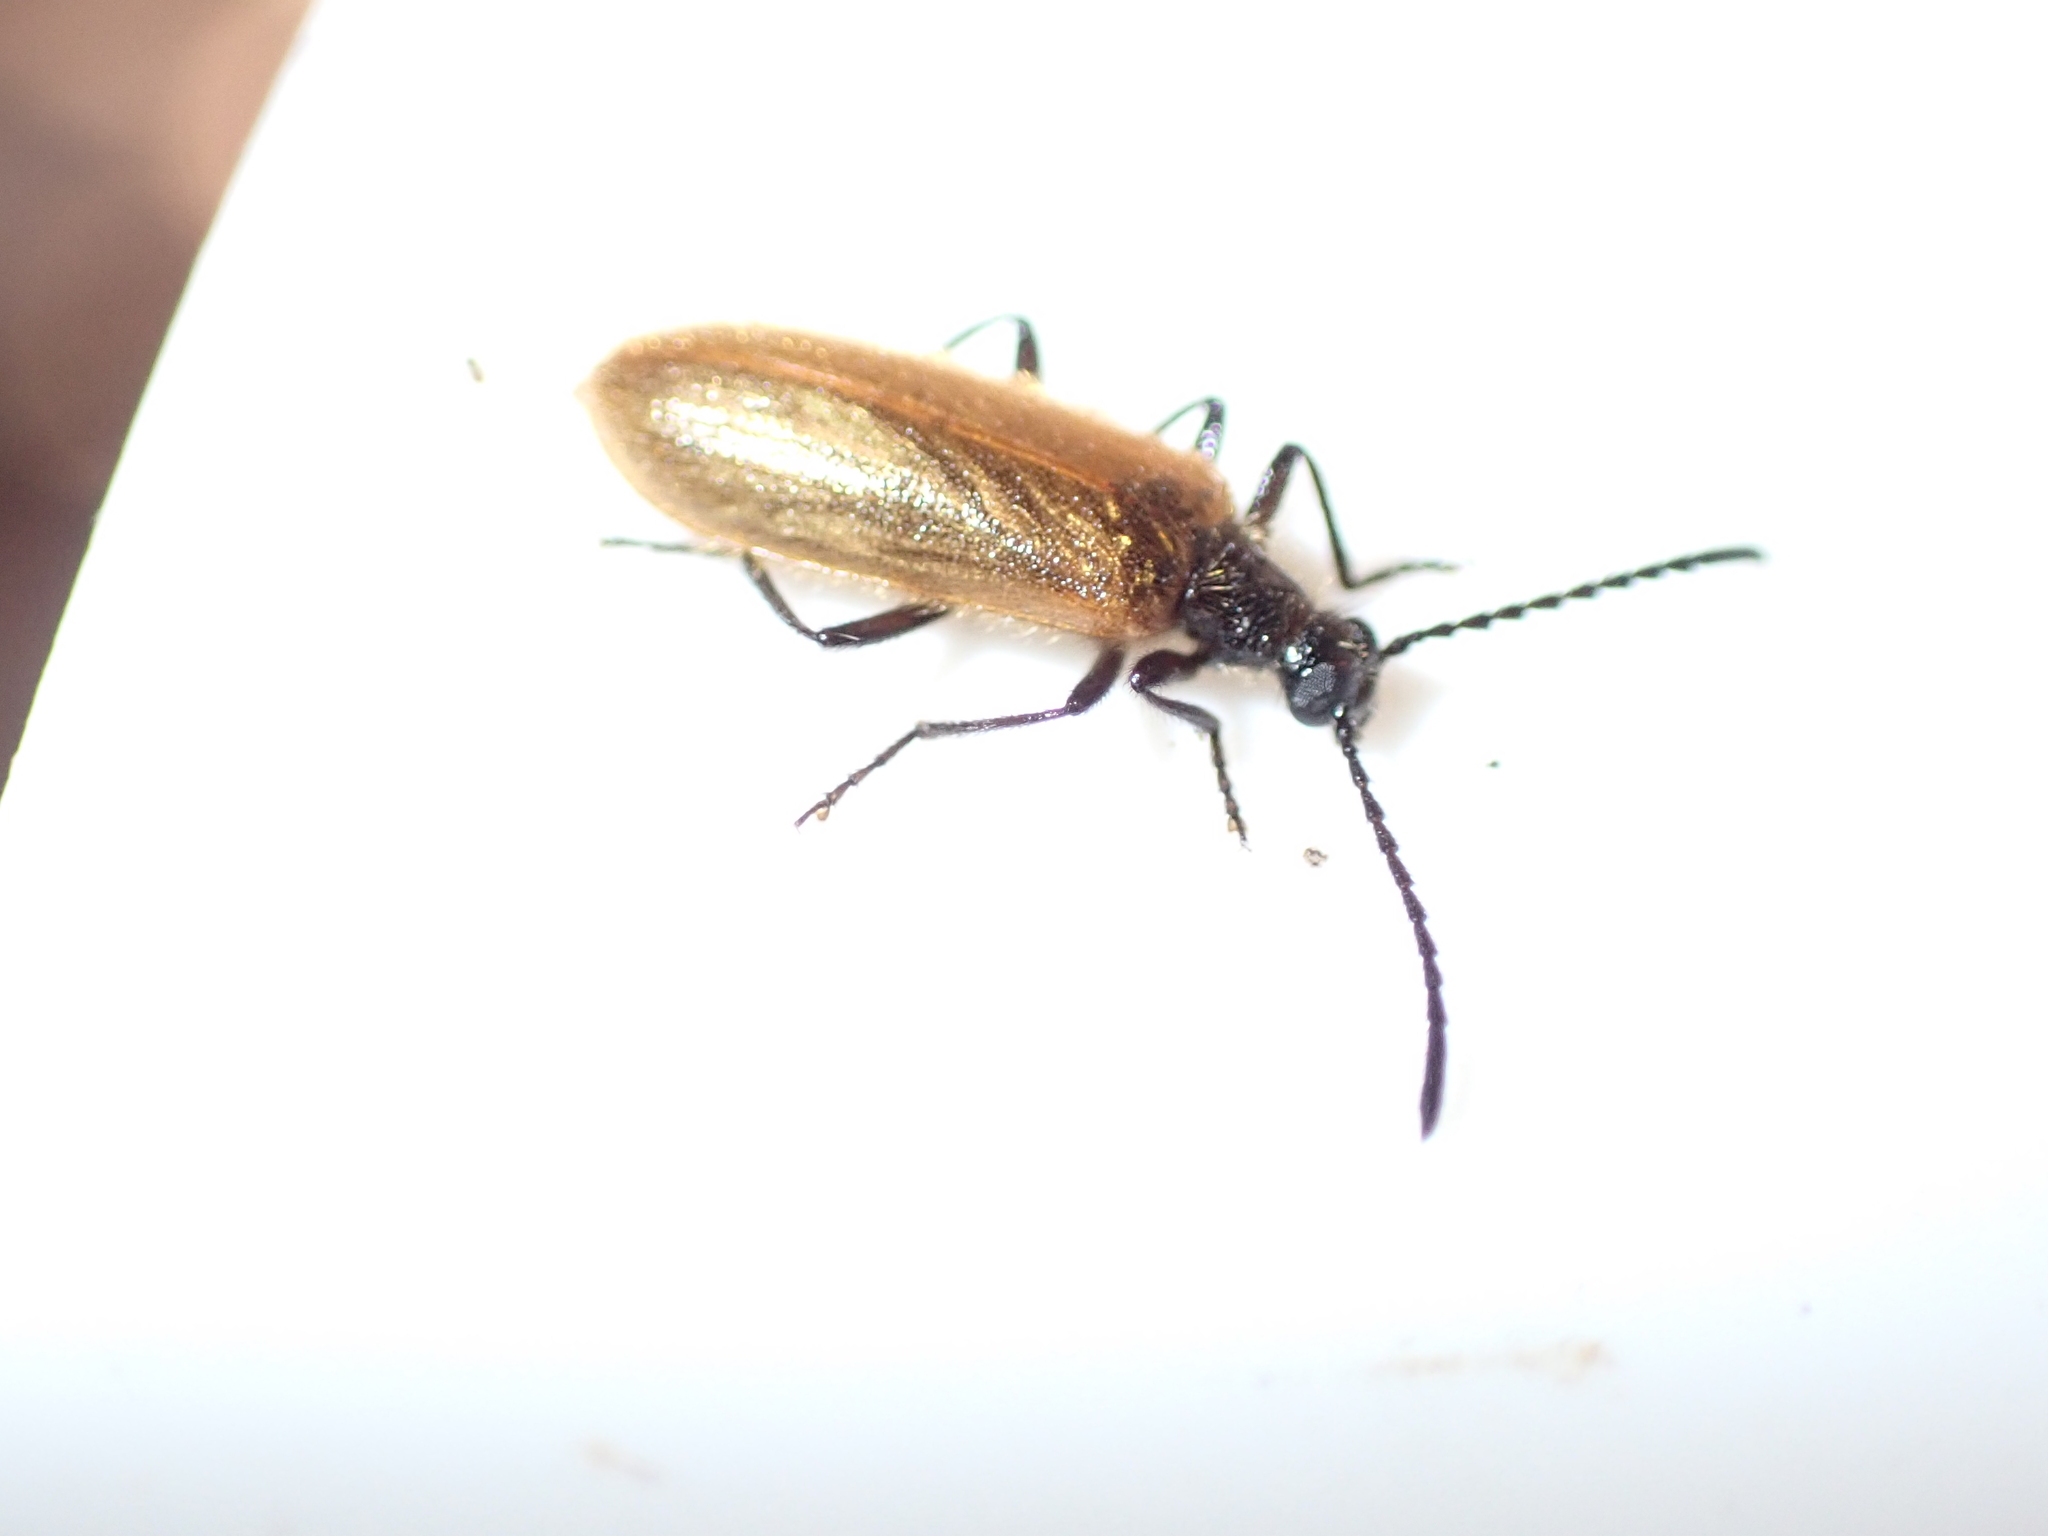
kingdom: Animalia
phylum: Arthropoda
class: Insecta
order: Coleoptera
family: Tenebrionidae
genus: Lagria
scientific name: Lagria hirta
